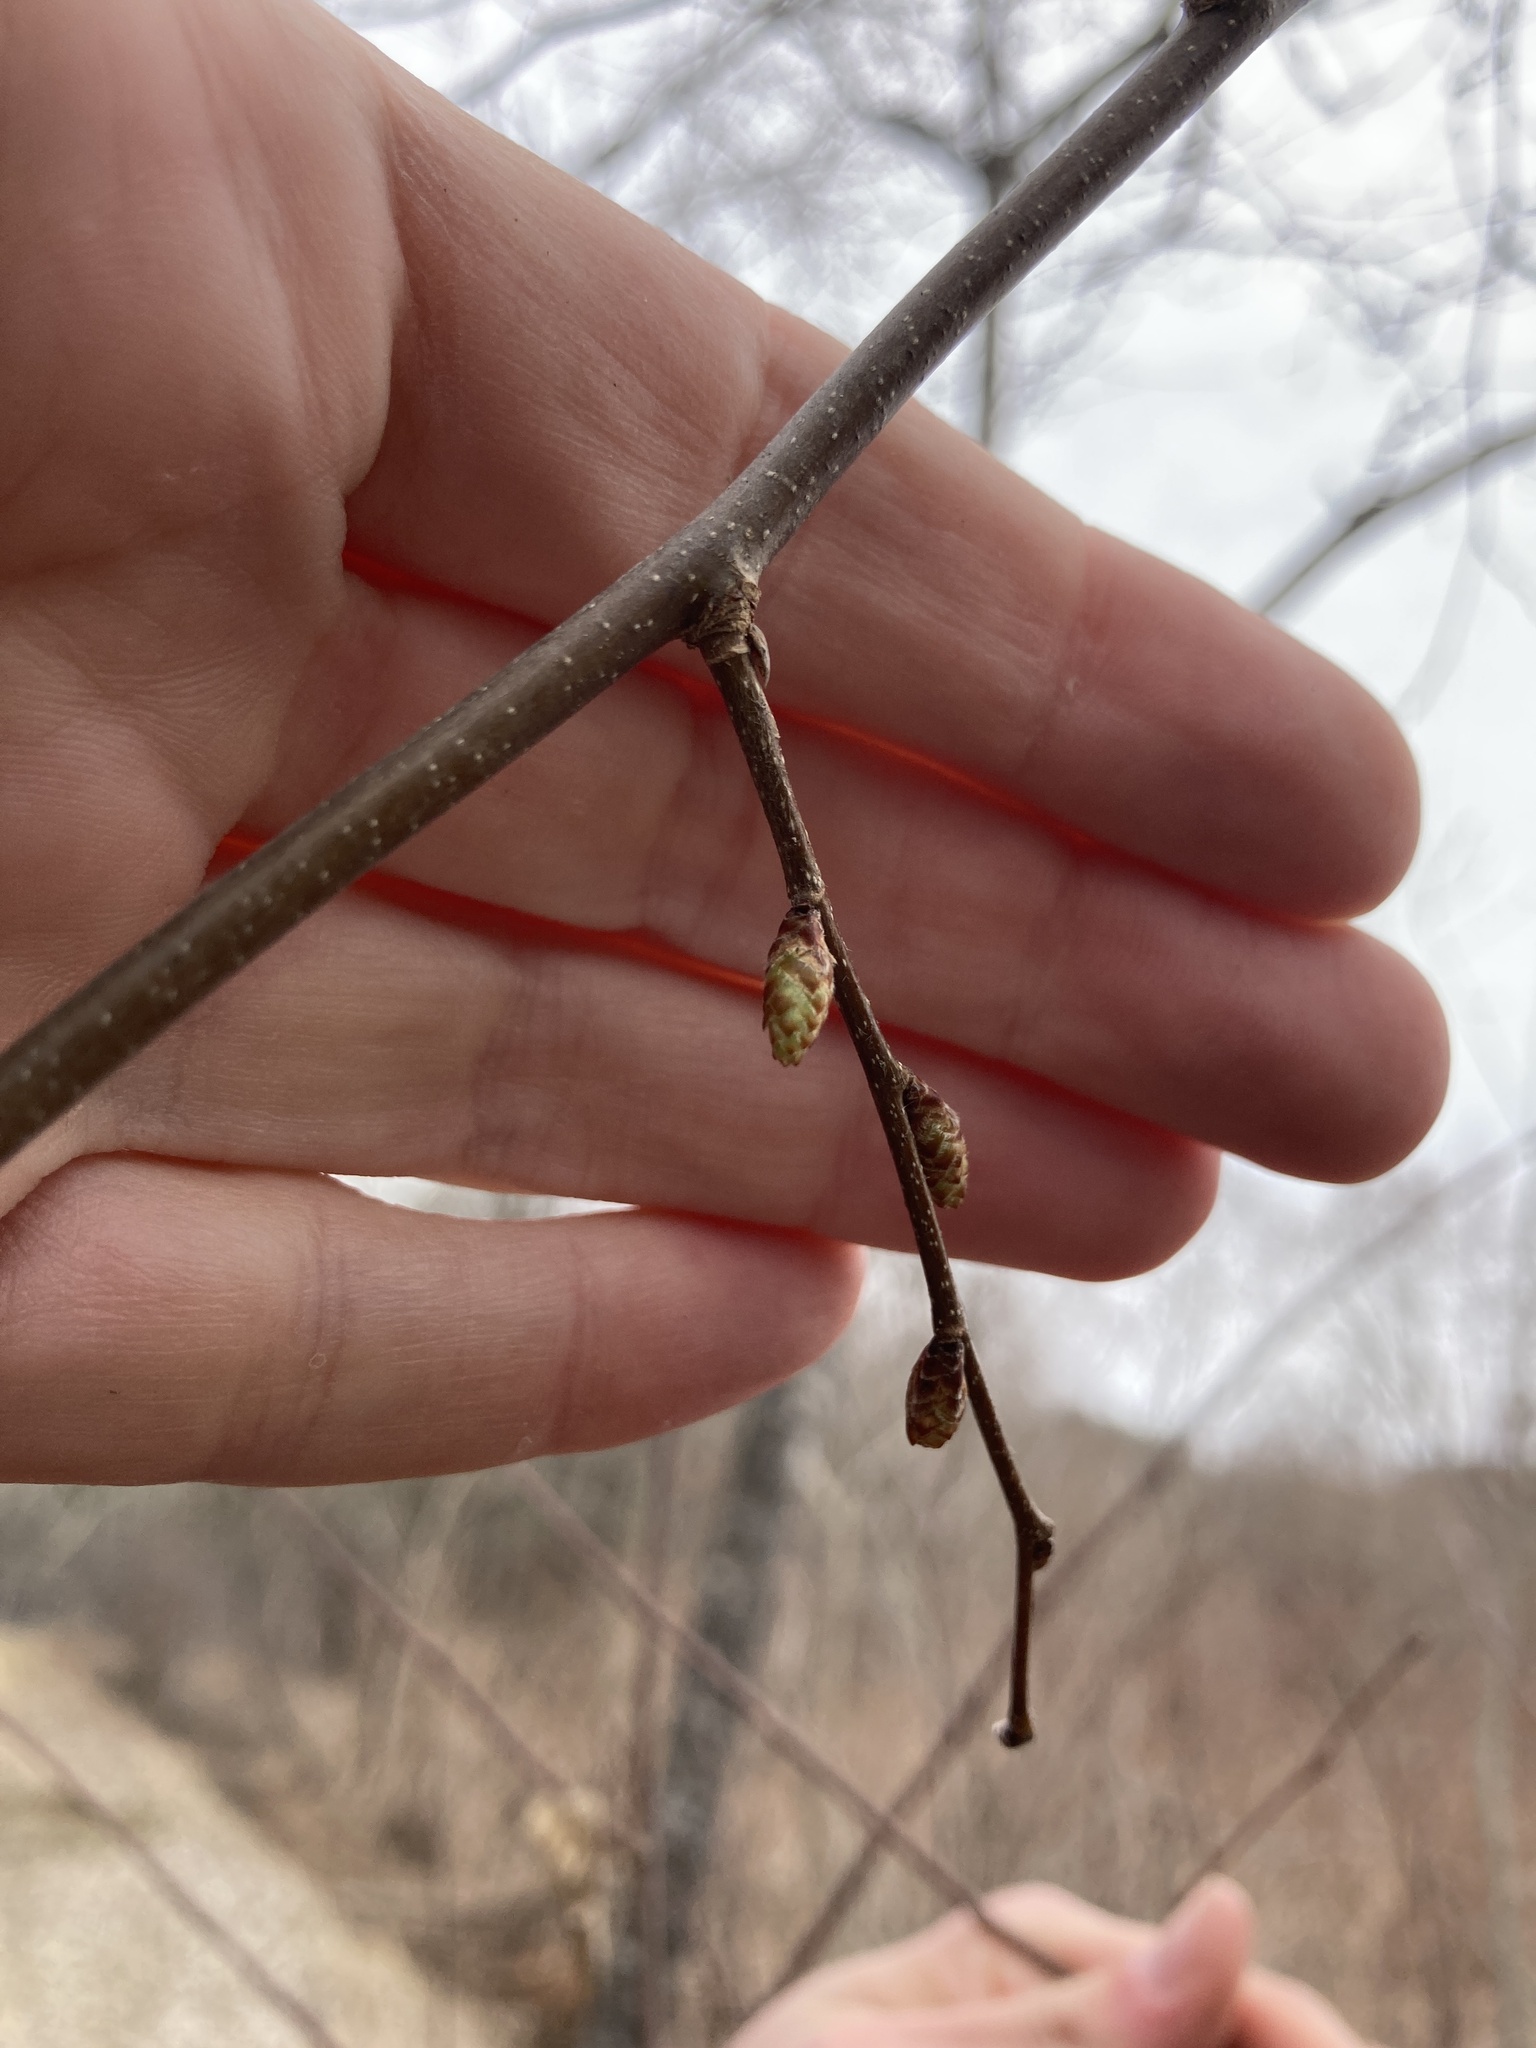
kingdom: Plantae
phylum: Tracheophyta
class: Magnoliopsida
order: Fagales
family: Betulaceae
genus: Carpinus
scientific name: Carpinus caroliniana
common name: American hornbeam
